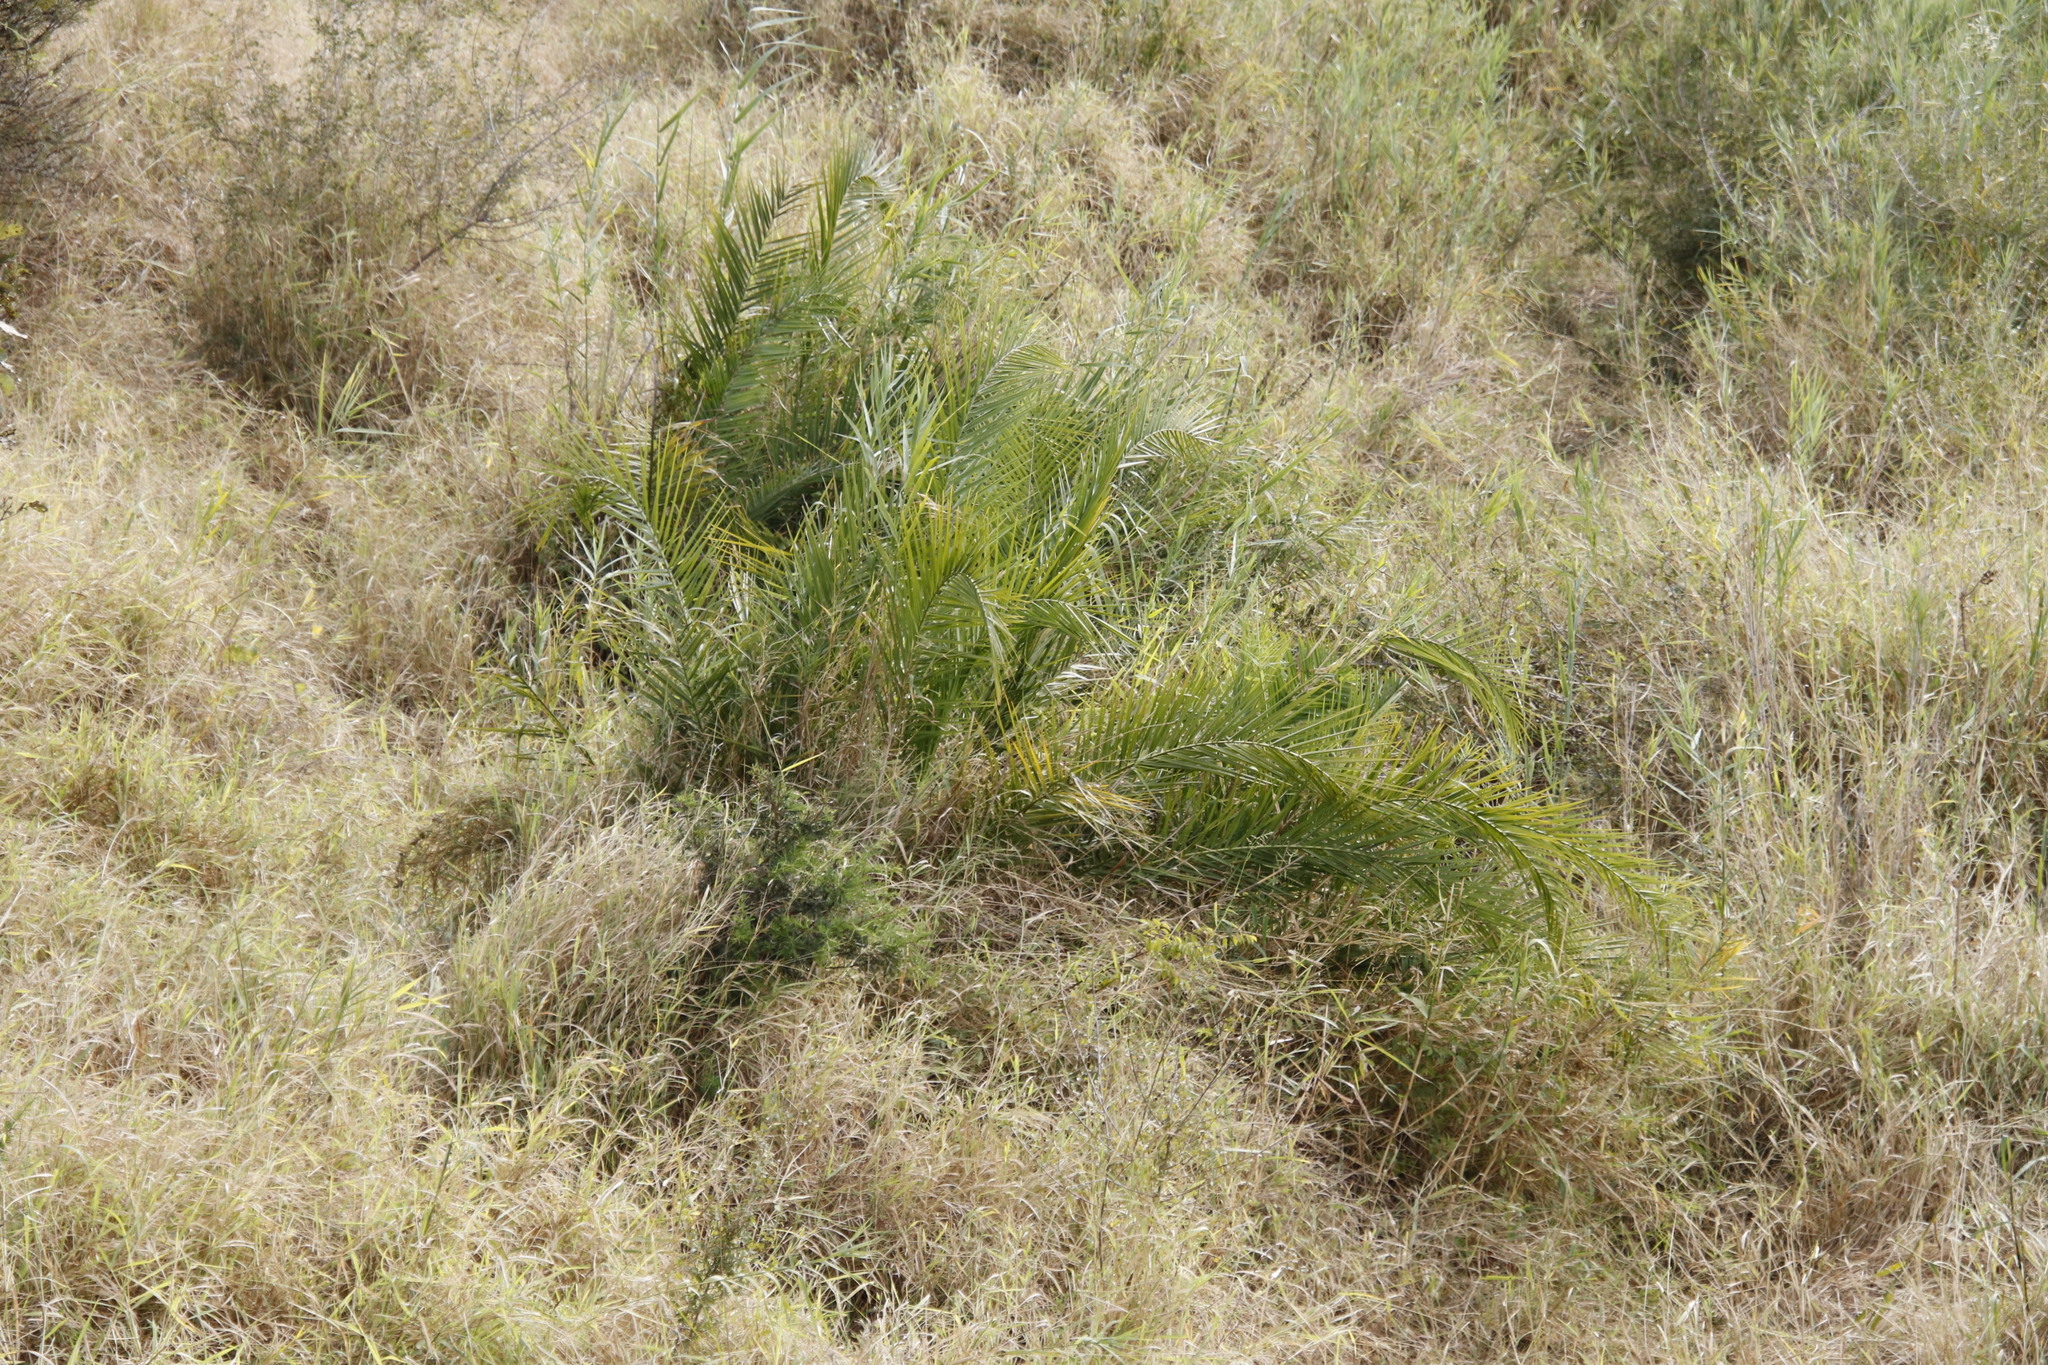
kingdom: Plantae
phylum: Tracheophyta
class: Liliopsida
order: Arecales
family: Arecaceae
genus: Phoenix
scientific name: Phoenix reclinata
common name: Senegal date palm
